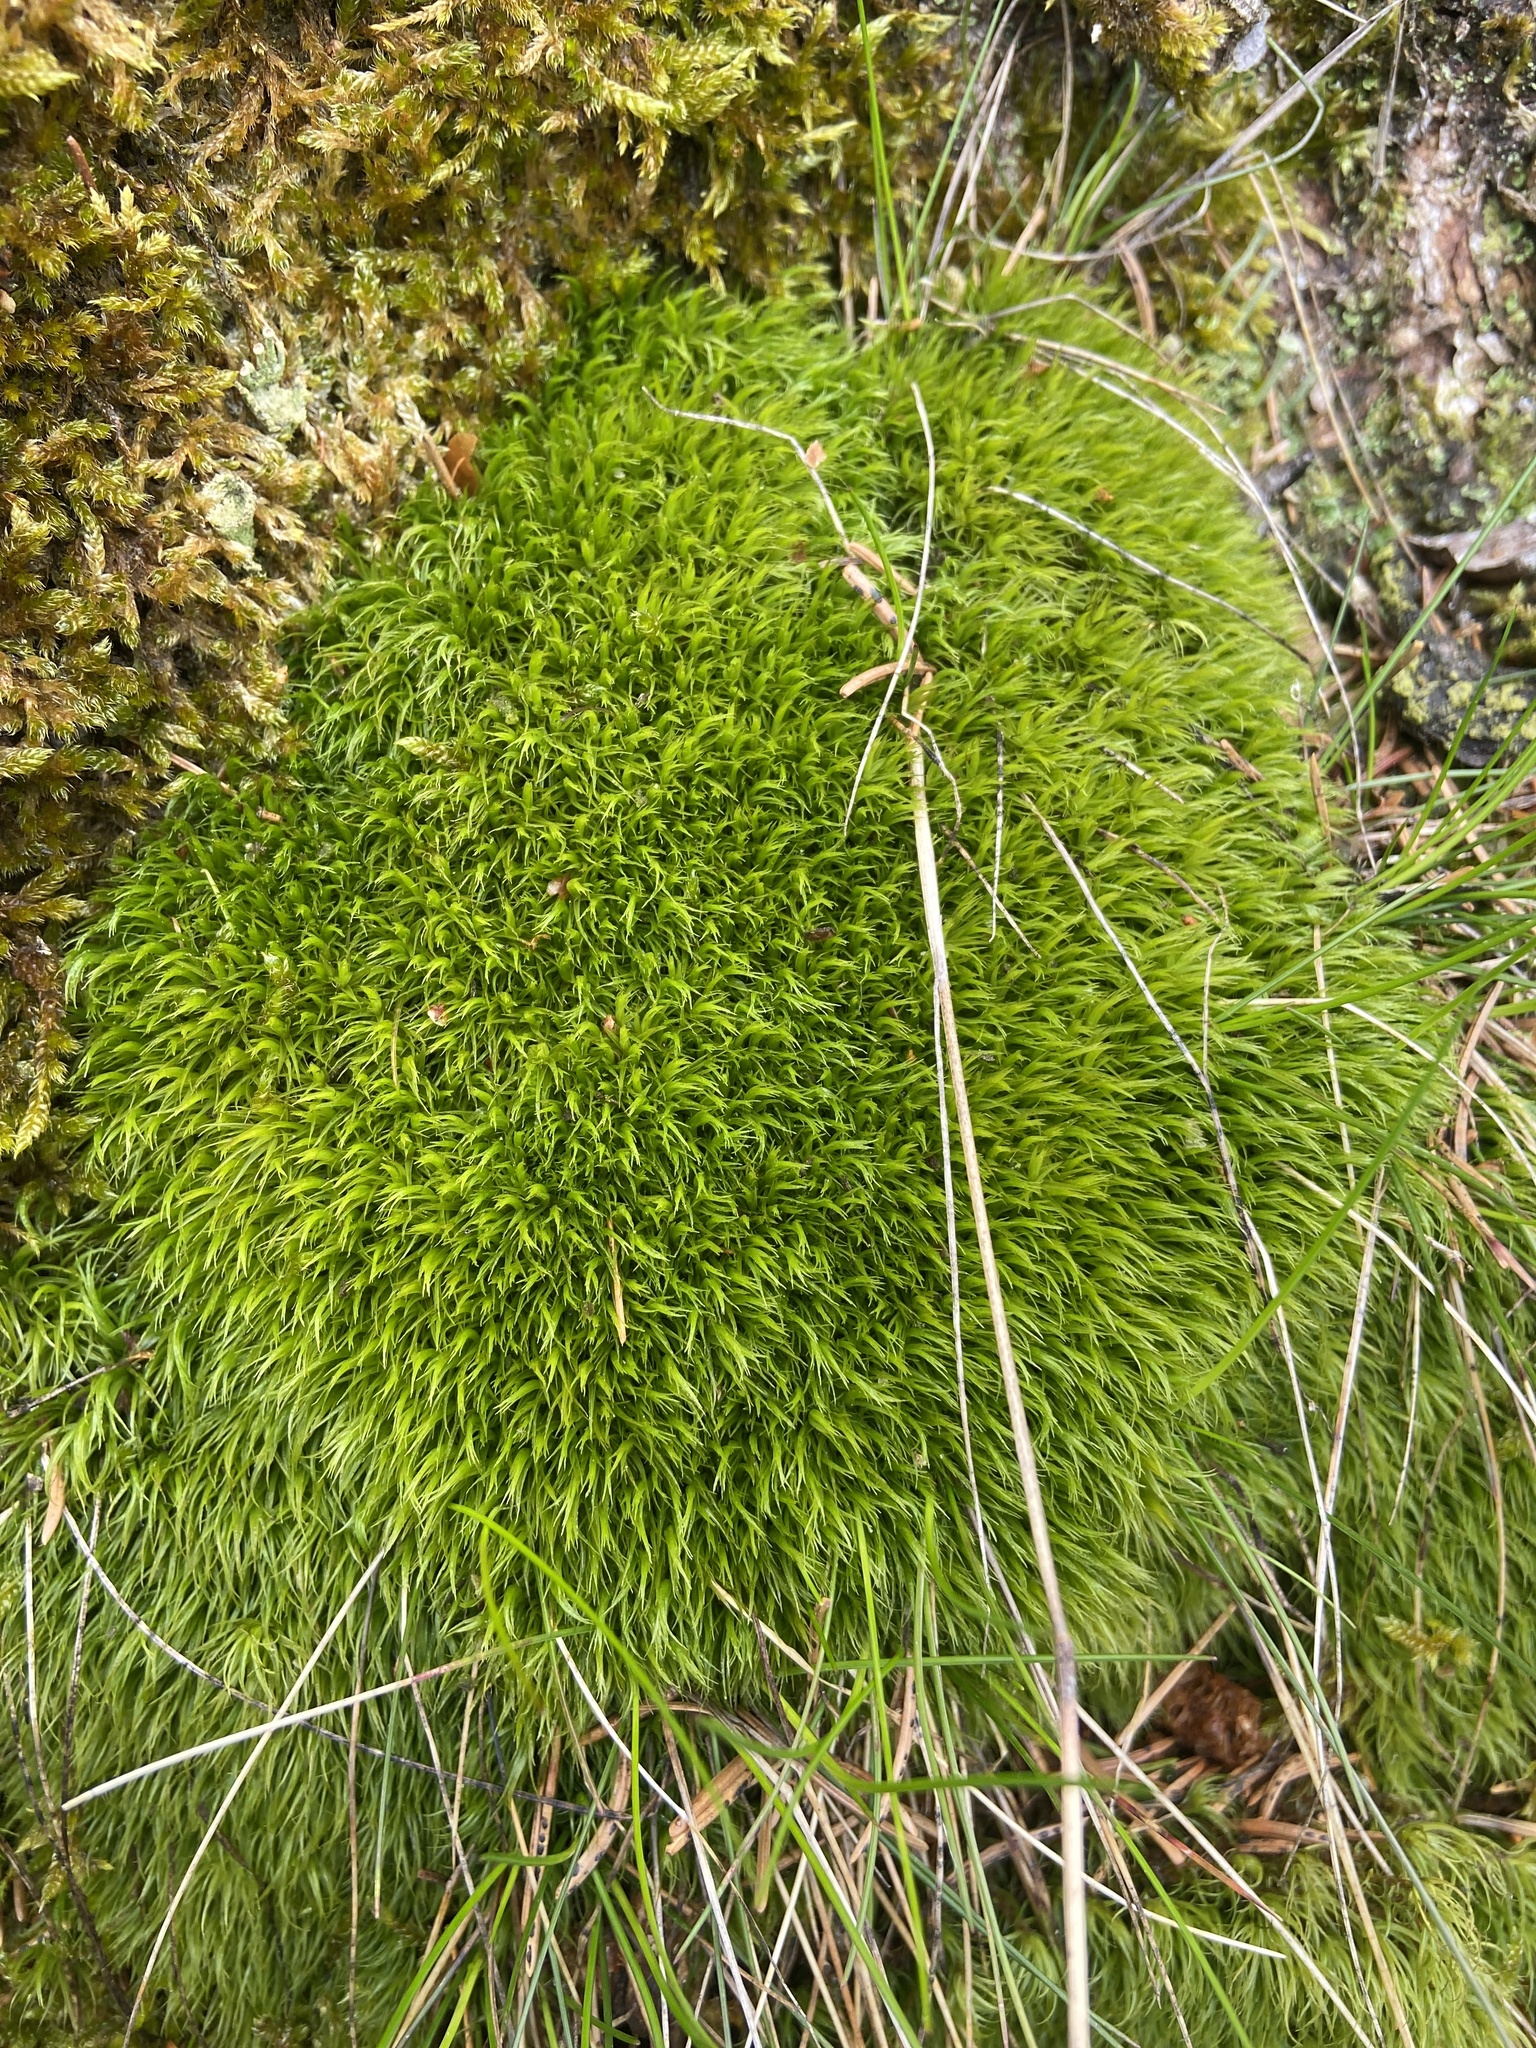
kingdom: Plantae
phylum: Bryophyta
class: Bryopsida
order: Dicranales
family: Dicranaceae
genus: Dicranum
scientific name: Dicranum scoparium
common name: Broom fork-moss
